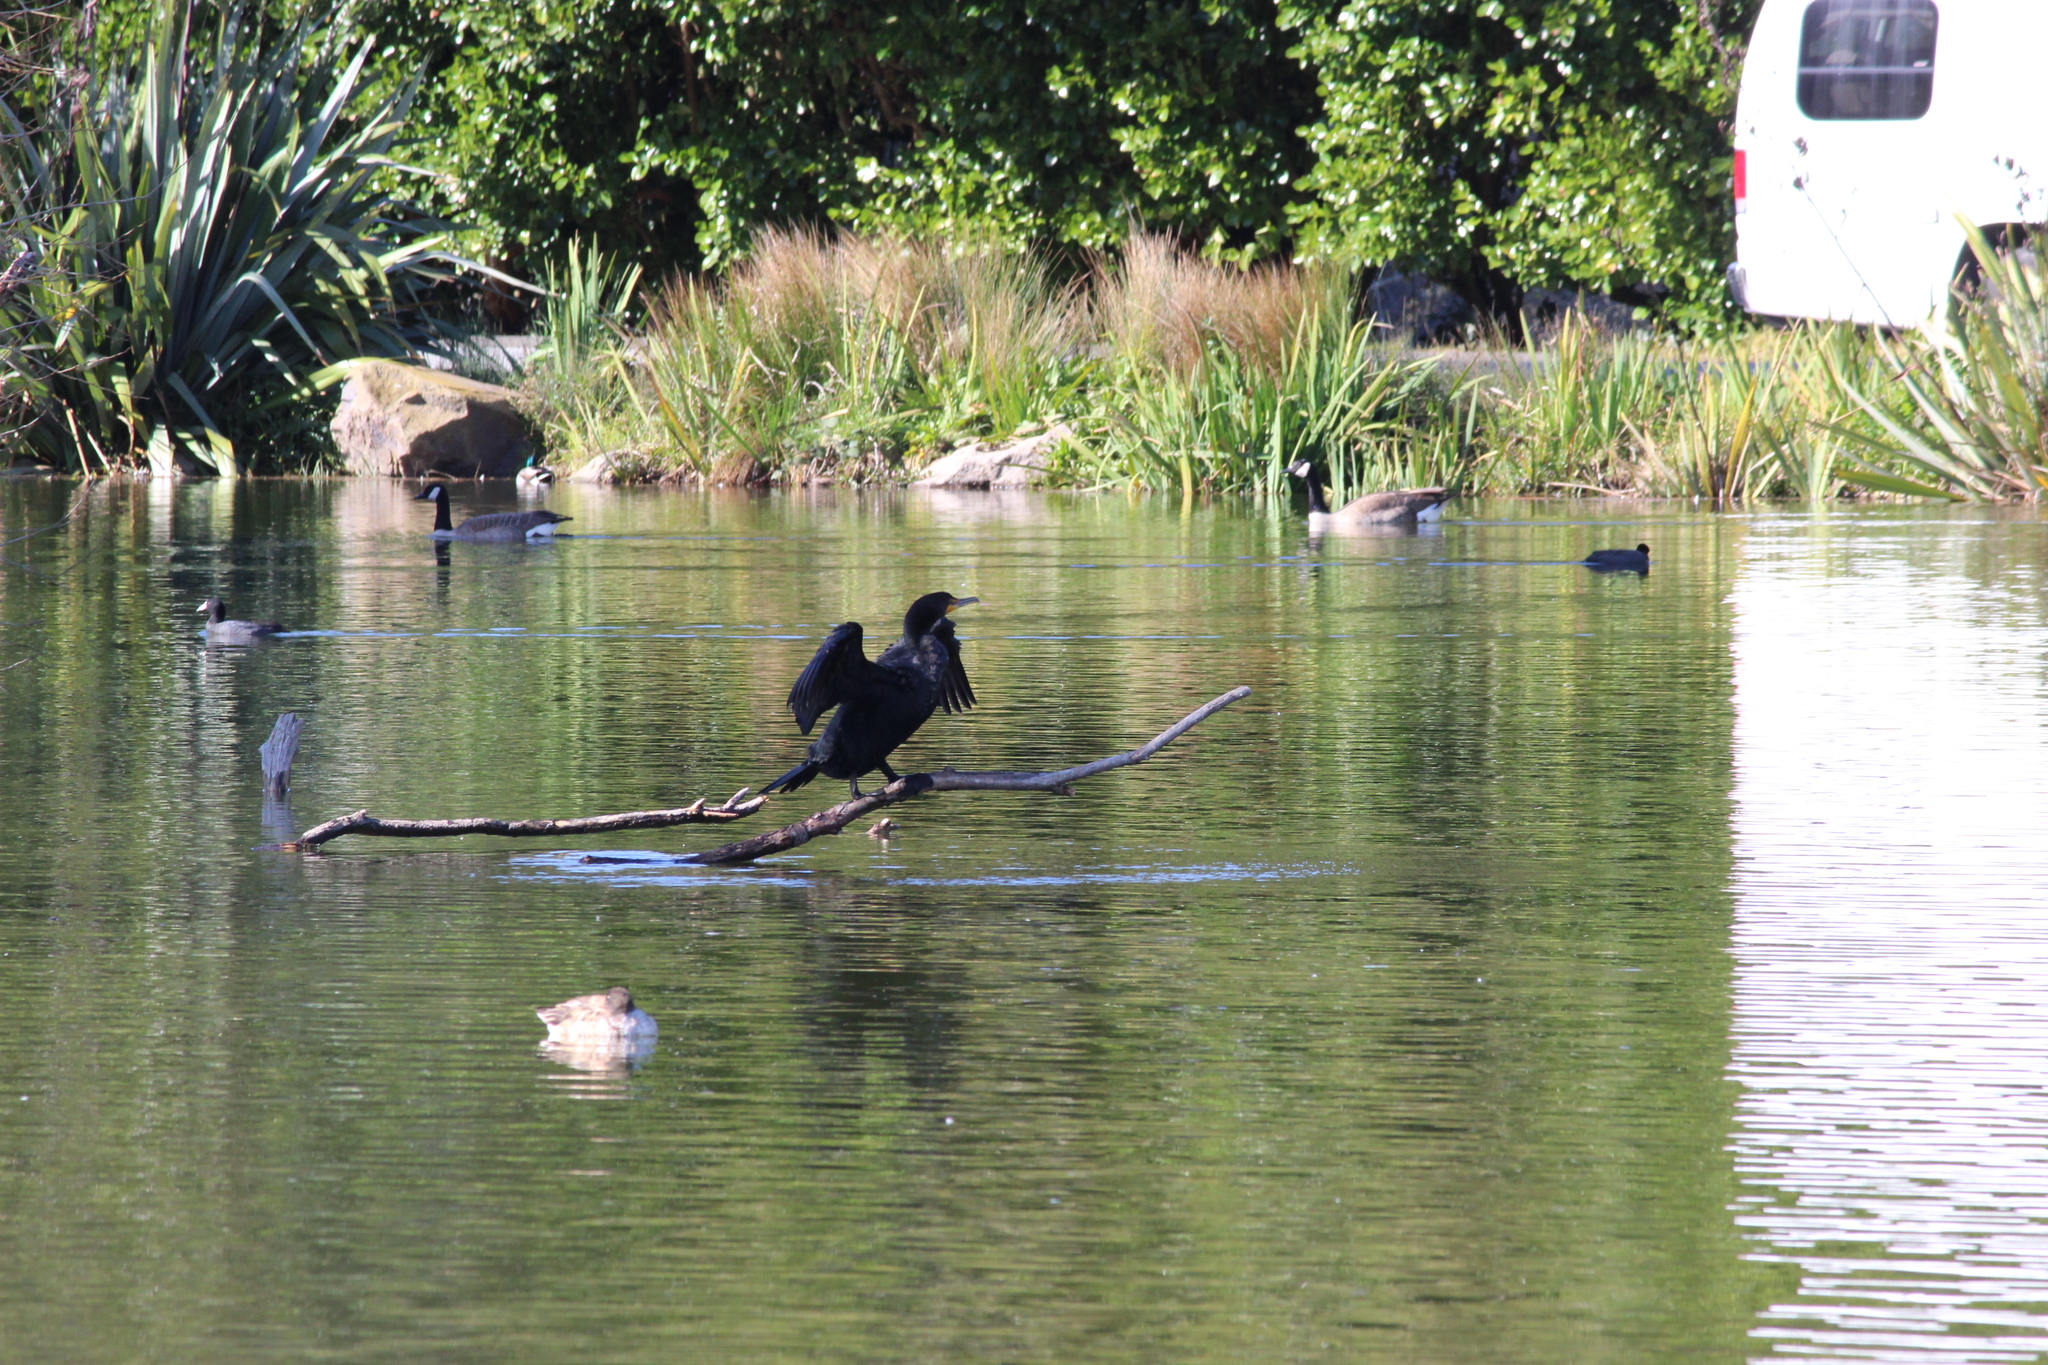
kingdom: Animalia
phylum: Chordata
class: Aves
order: Suliformes
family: Phalacrocoracidae
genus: Phalacrocorax
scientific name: Phalacrocorax auritus
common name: Double-crested cormorant
